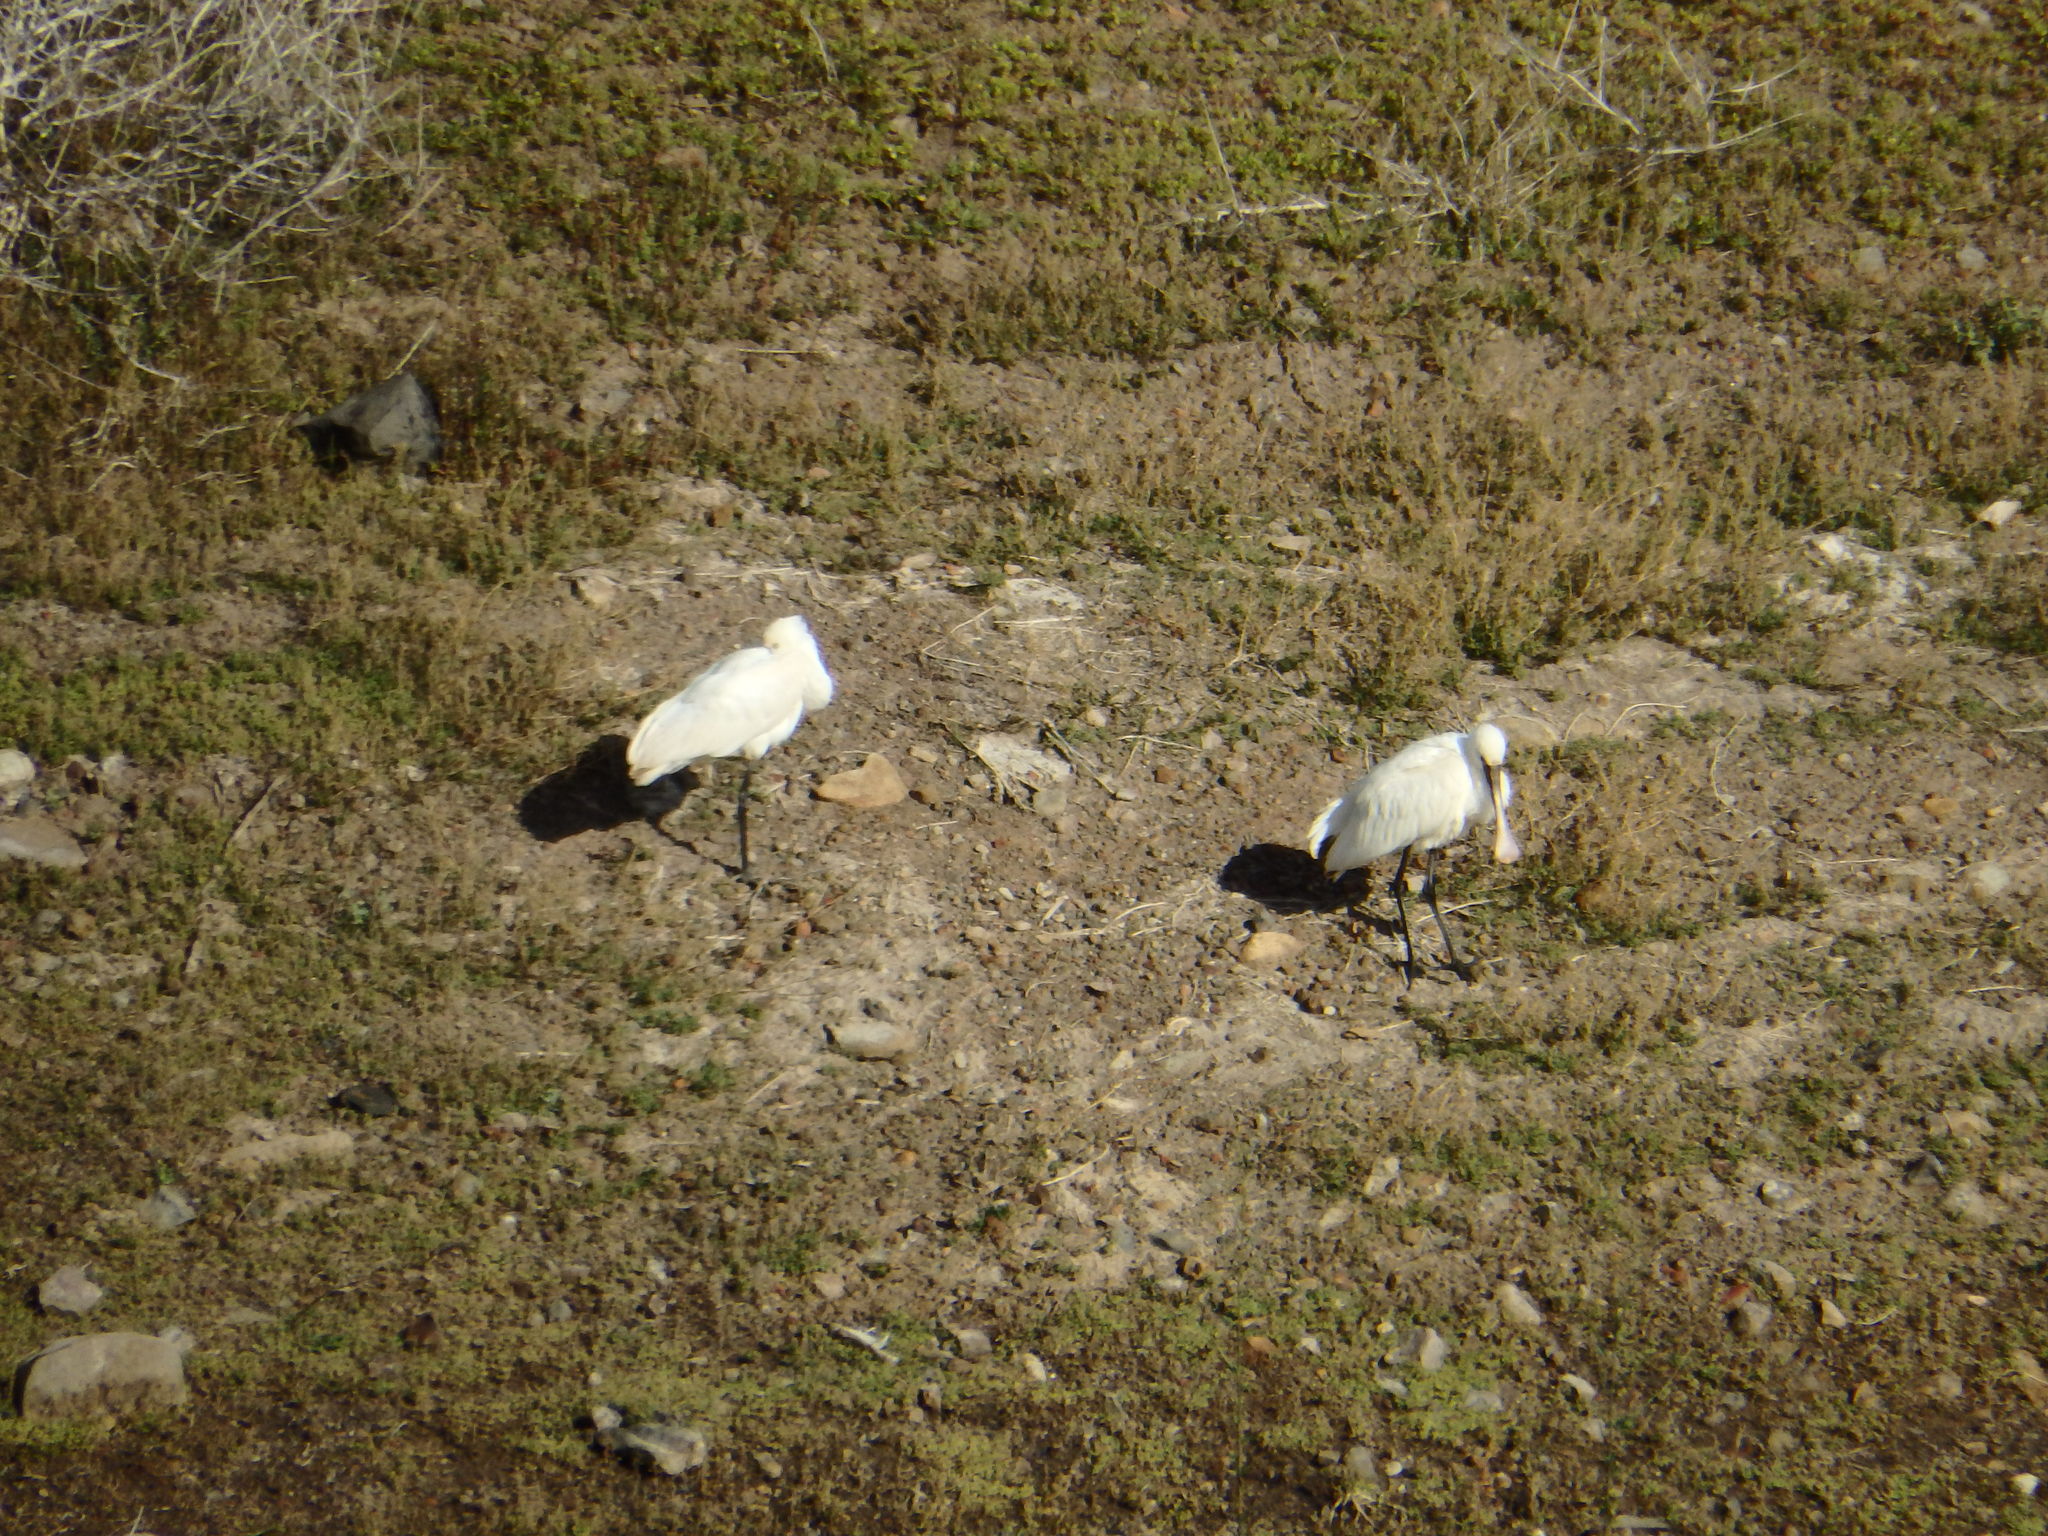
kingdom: Animalia
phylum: Chordata
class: Aves
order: Pelecaniformes
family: Threskiornithidae
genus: Platalea
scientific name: Platalea leucorodia
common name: Eurasian spoonbill
